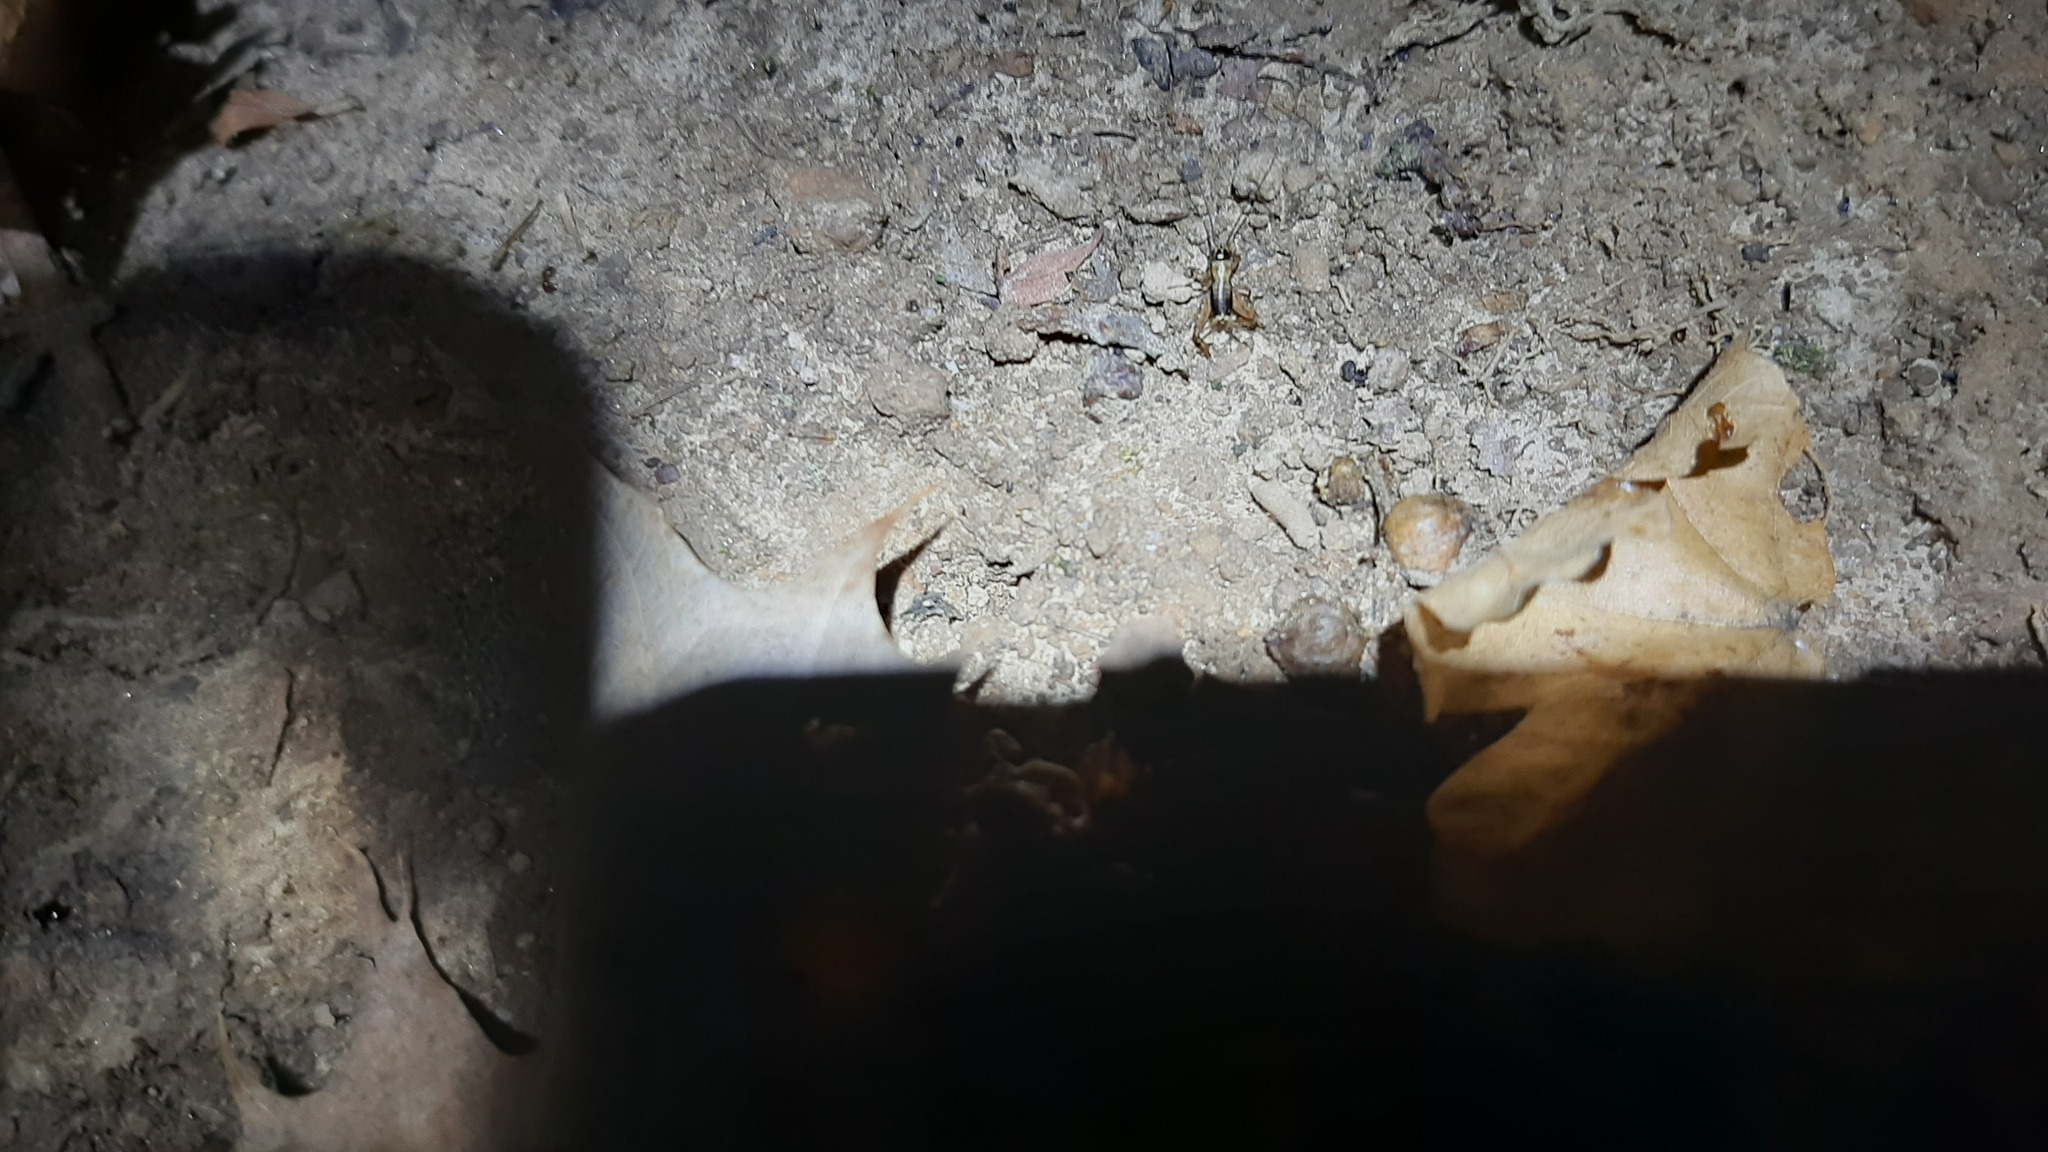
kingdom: Animalia
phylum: Arthropoda
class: Insecta
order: Orthoptera
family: Trigonidiidae
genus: Nemobius
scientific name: Nemobius sylvestris
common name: Wood-cricket
